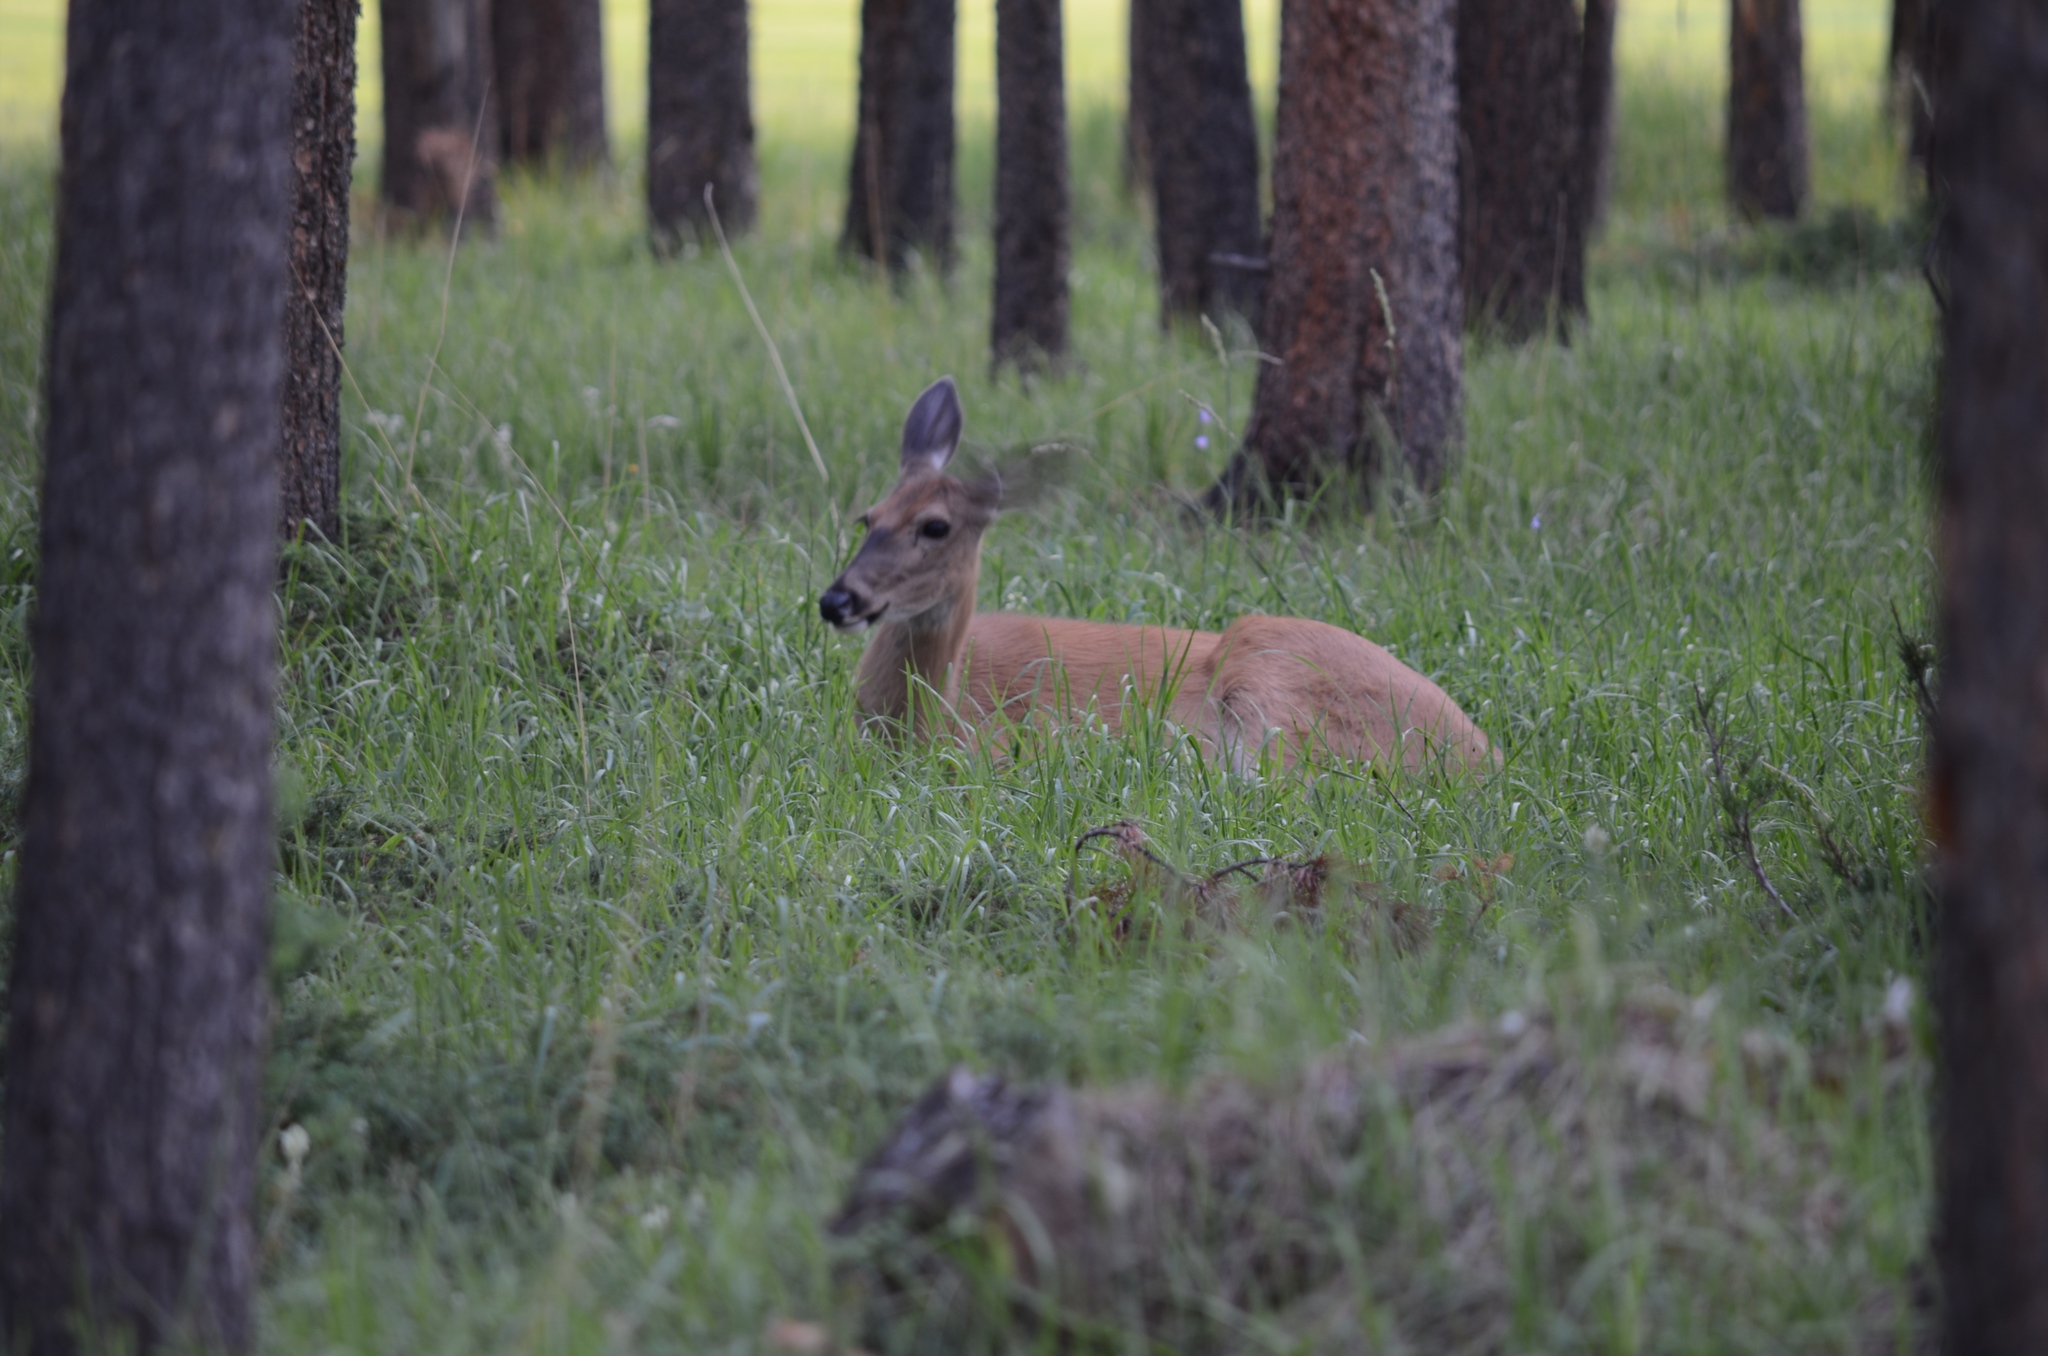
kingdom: Animalia
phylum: Chordata
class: Mammalia
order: Artiodactyla
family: Cervidae
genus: Odocoileus
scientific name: Odocoileus virginianus
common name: White-tailed deer
